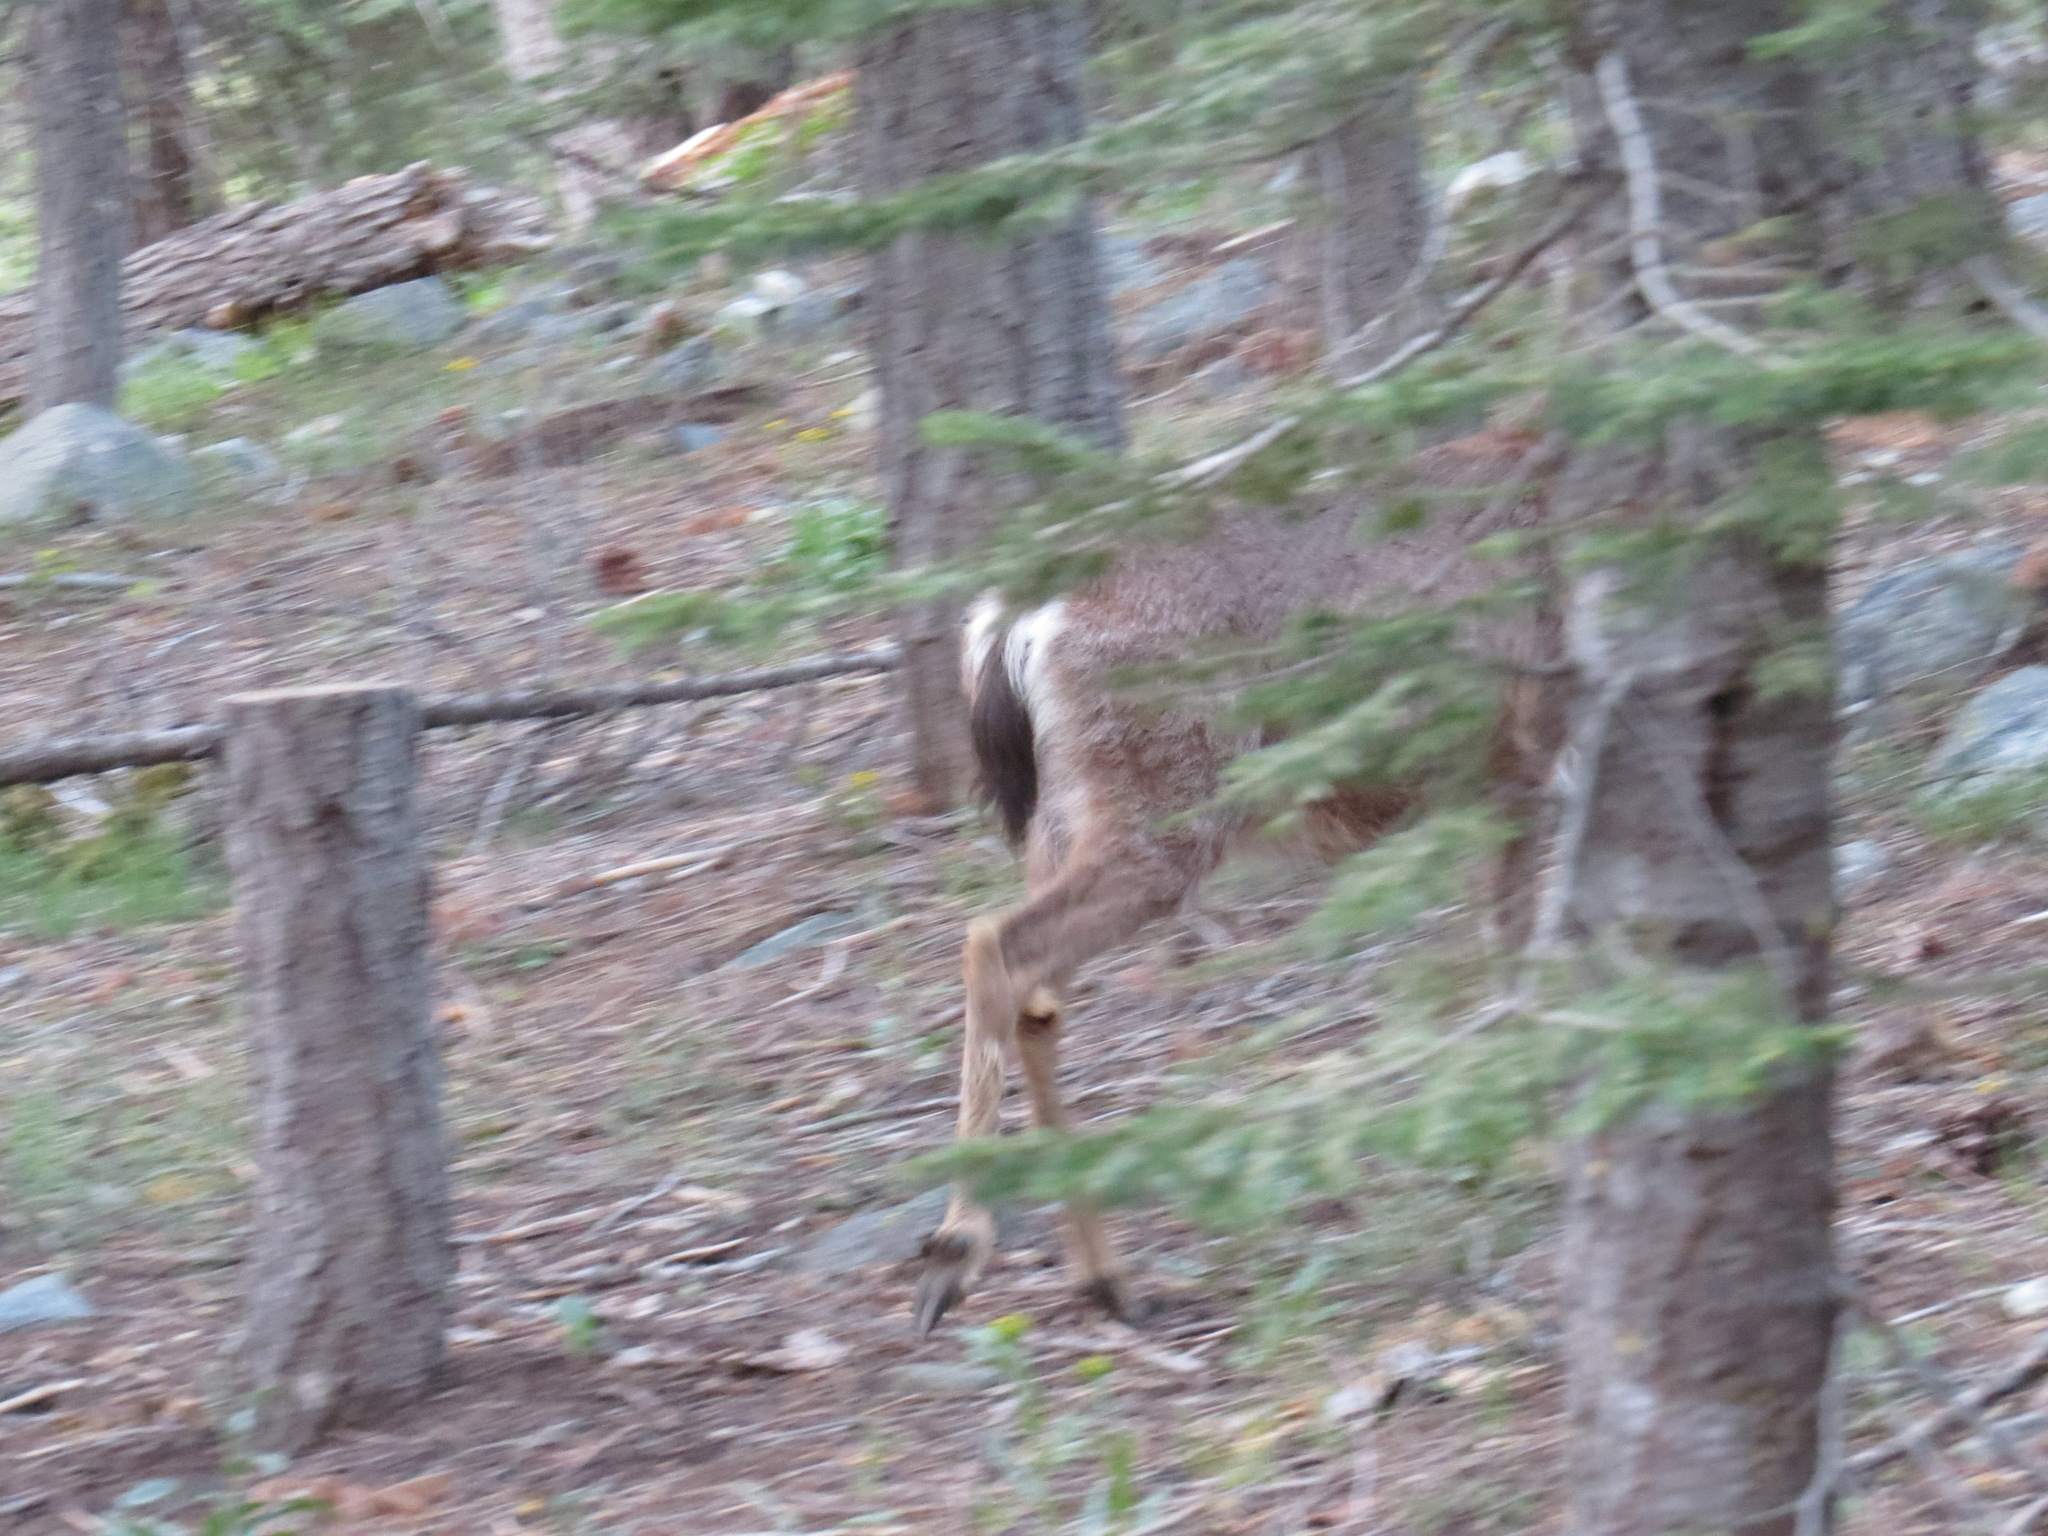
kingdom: Animalia
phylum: Chordata
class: Mammalia
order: Artiodactyla
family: Cervidae
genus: Odocoileus
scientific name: Odocoileus hemionus
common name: Mule deer
